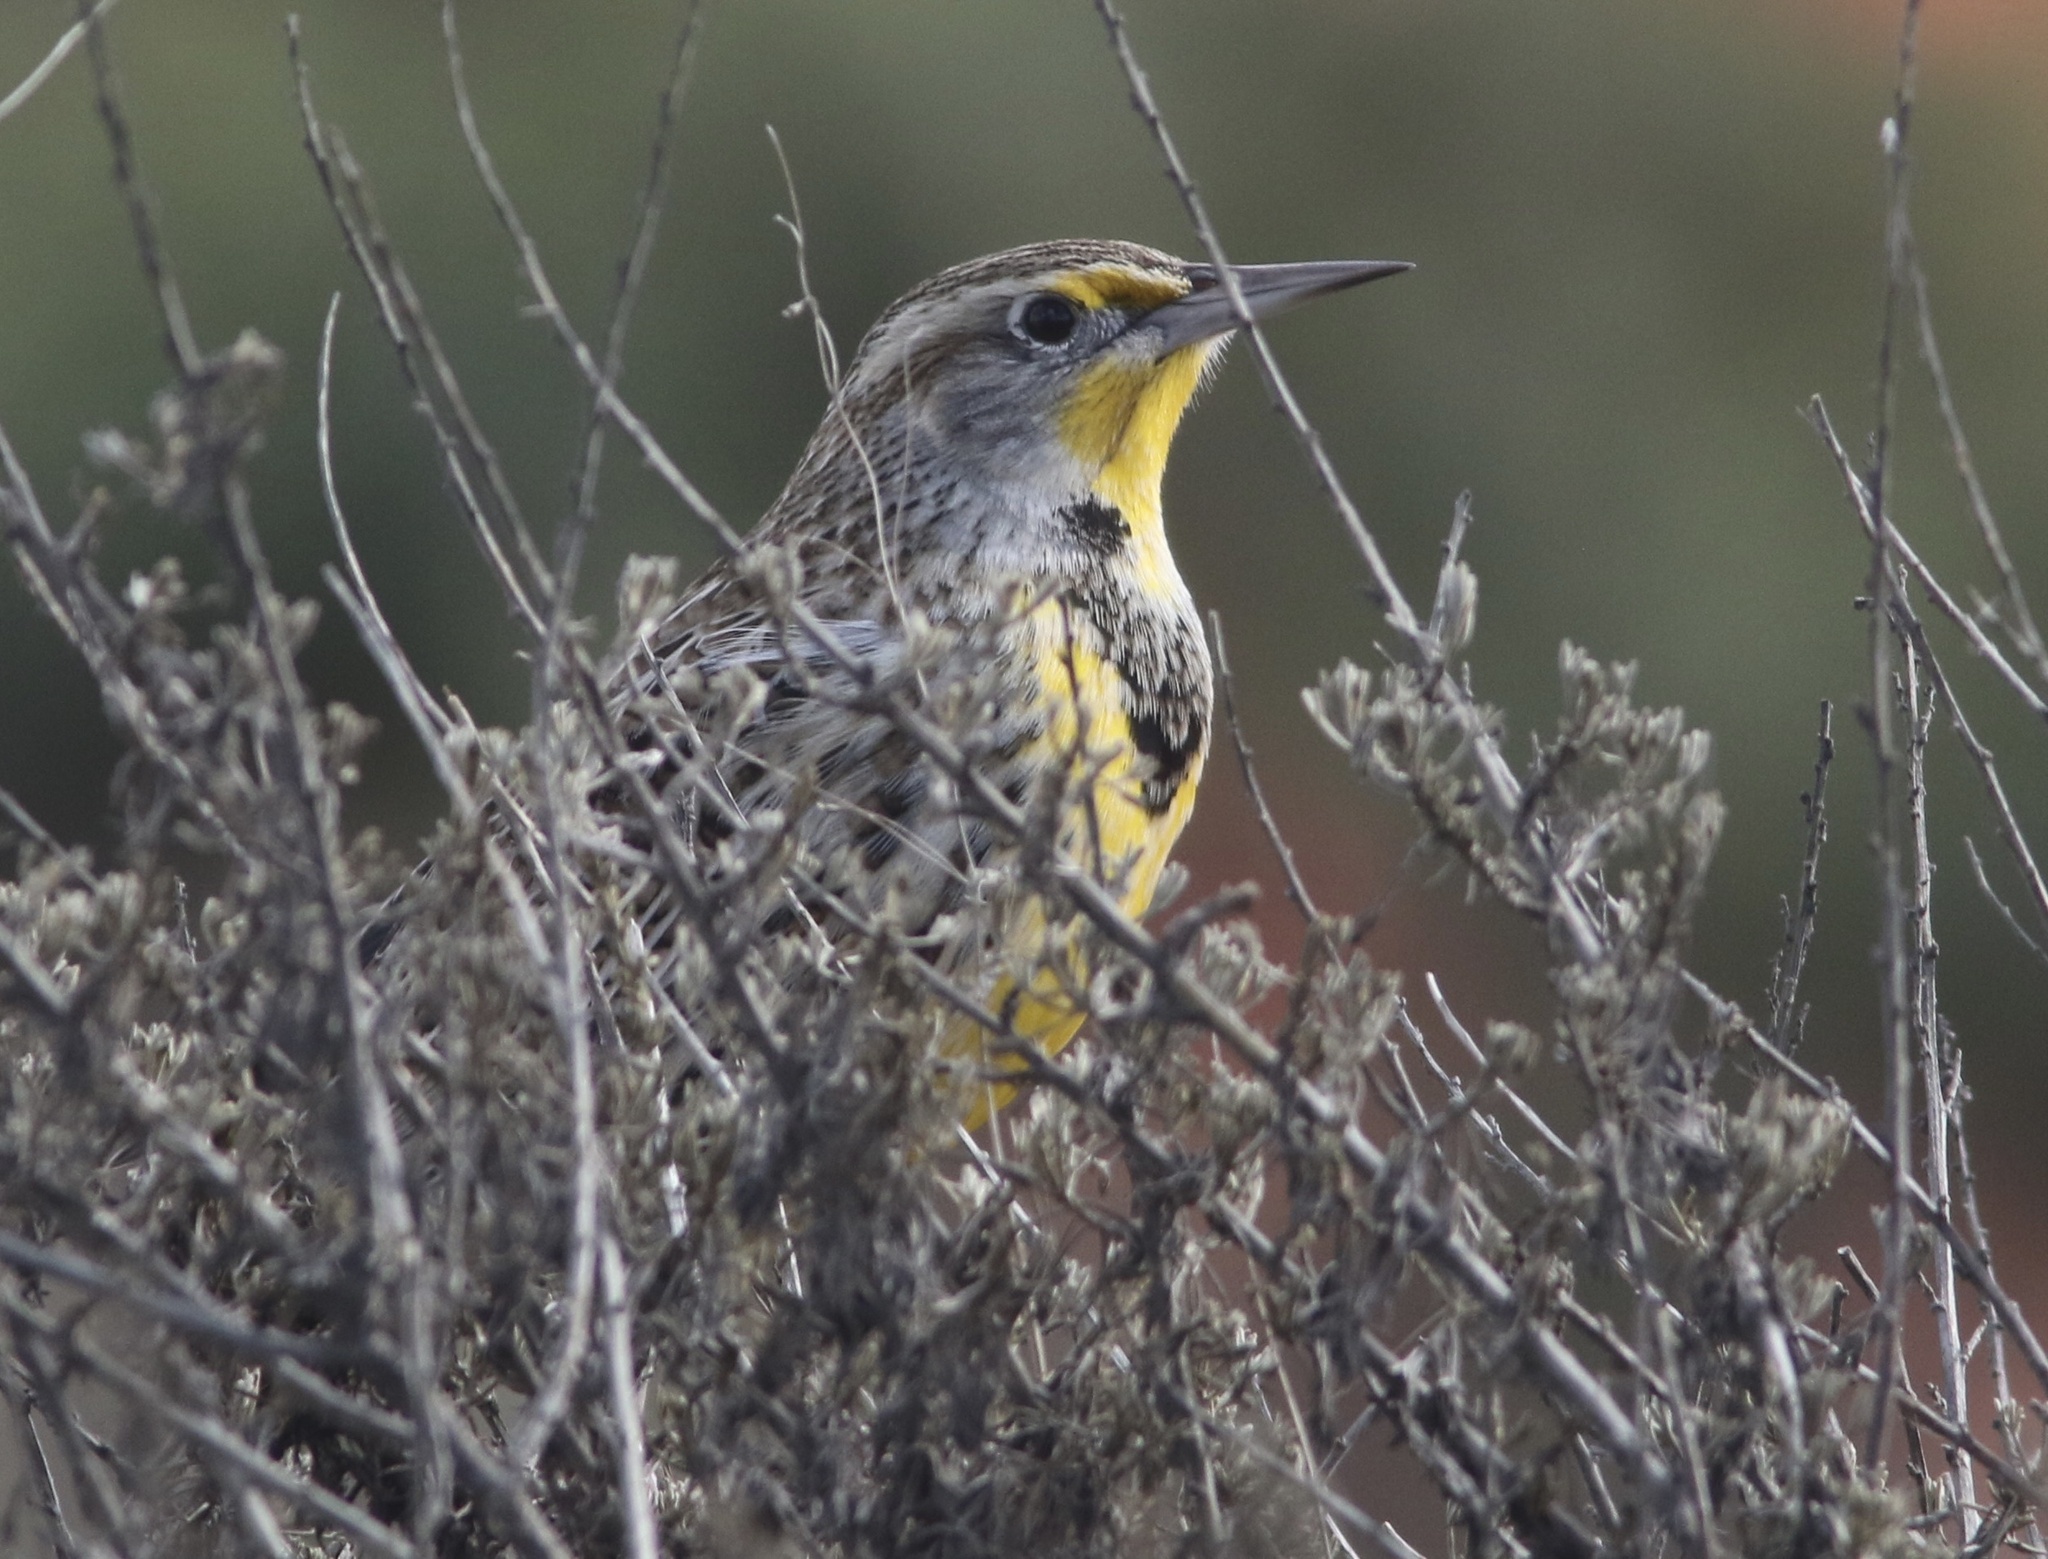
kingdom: Animalia
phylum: Chordata
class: Aves
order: Passeriformes
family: Icteridae
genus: Sturnella
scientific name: Sturnella neglecta
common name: Western meadowlark
